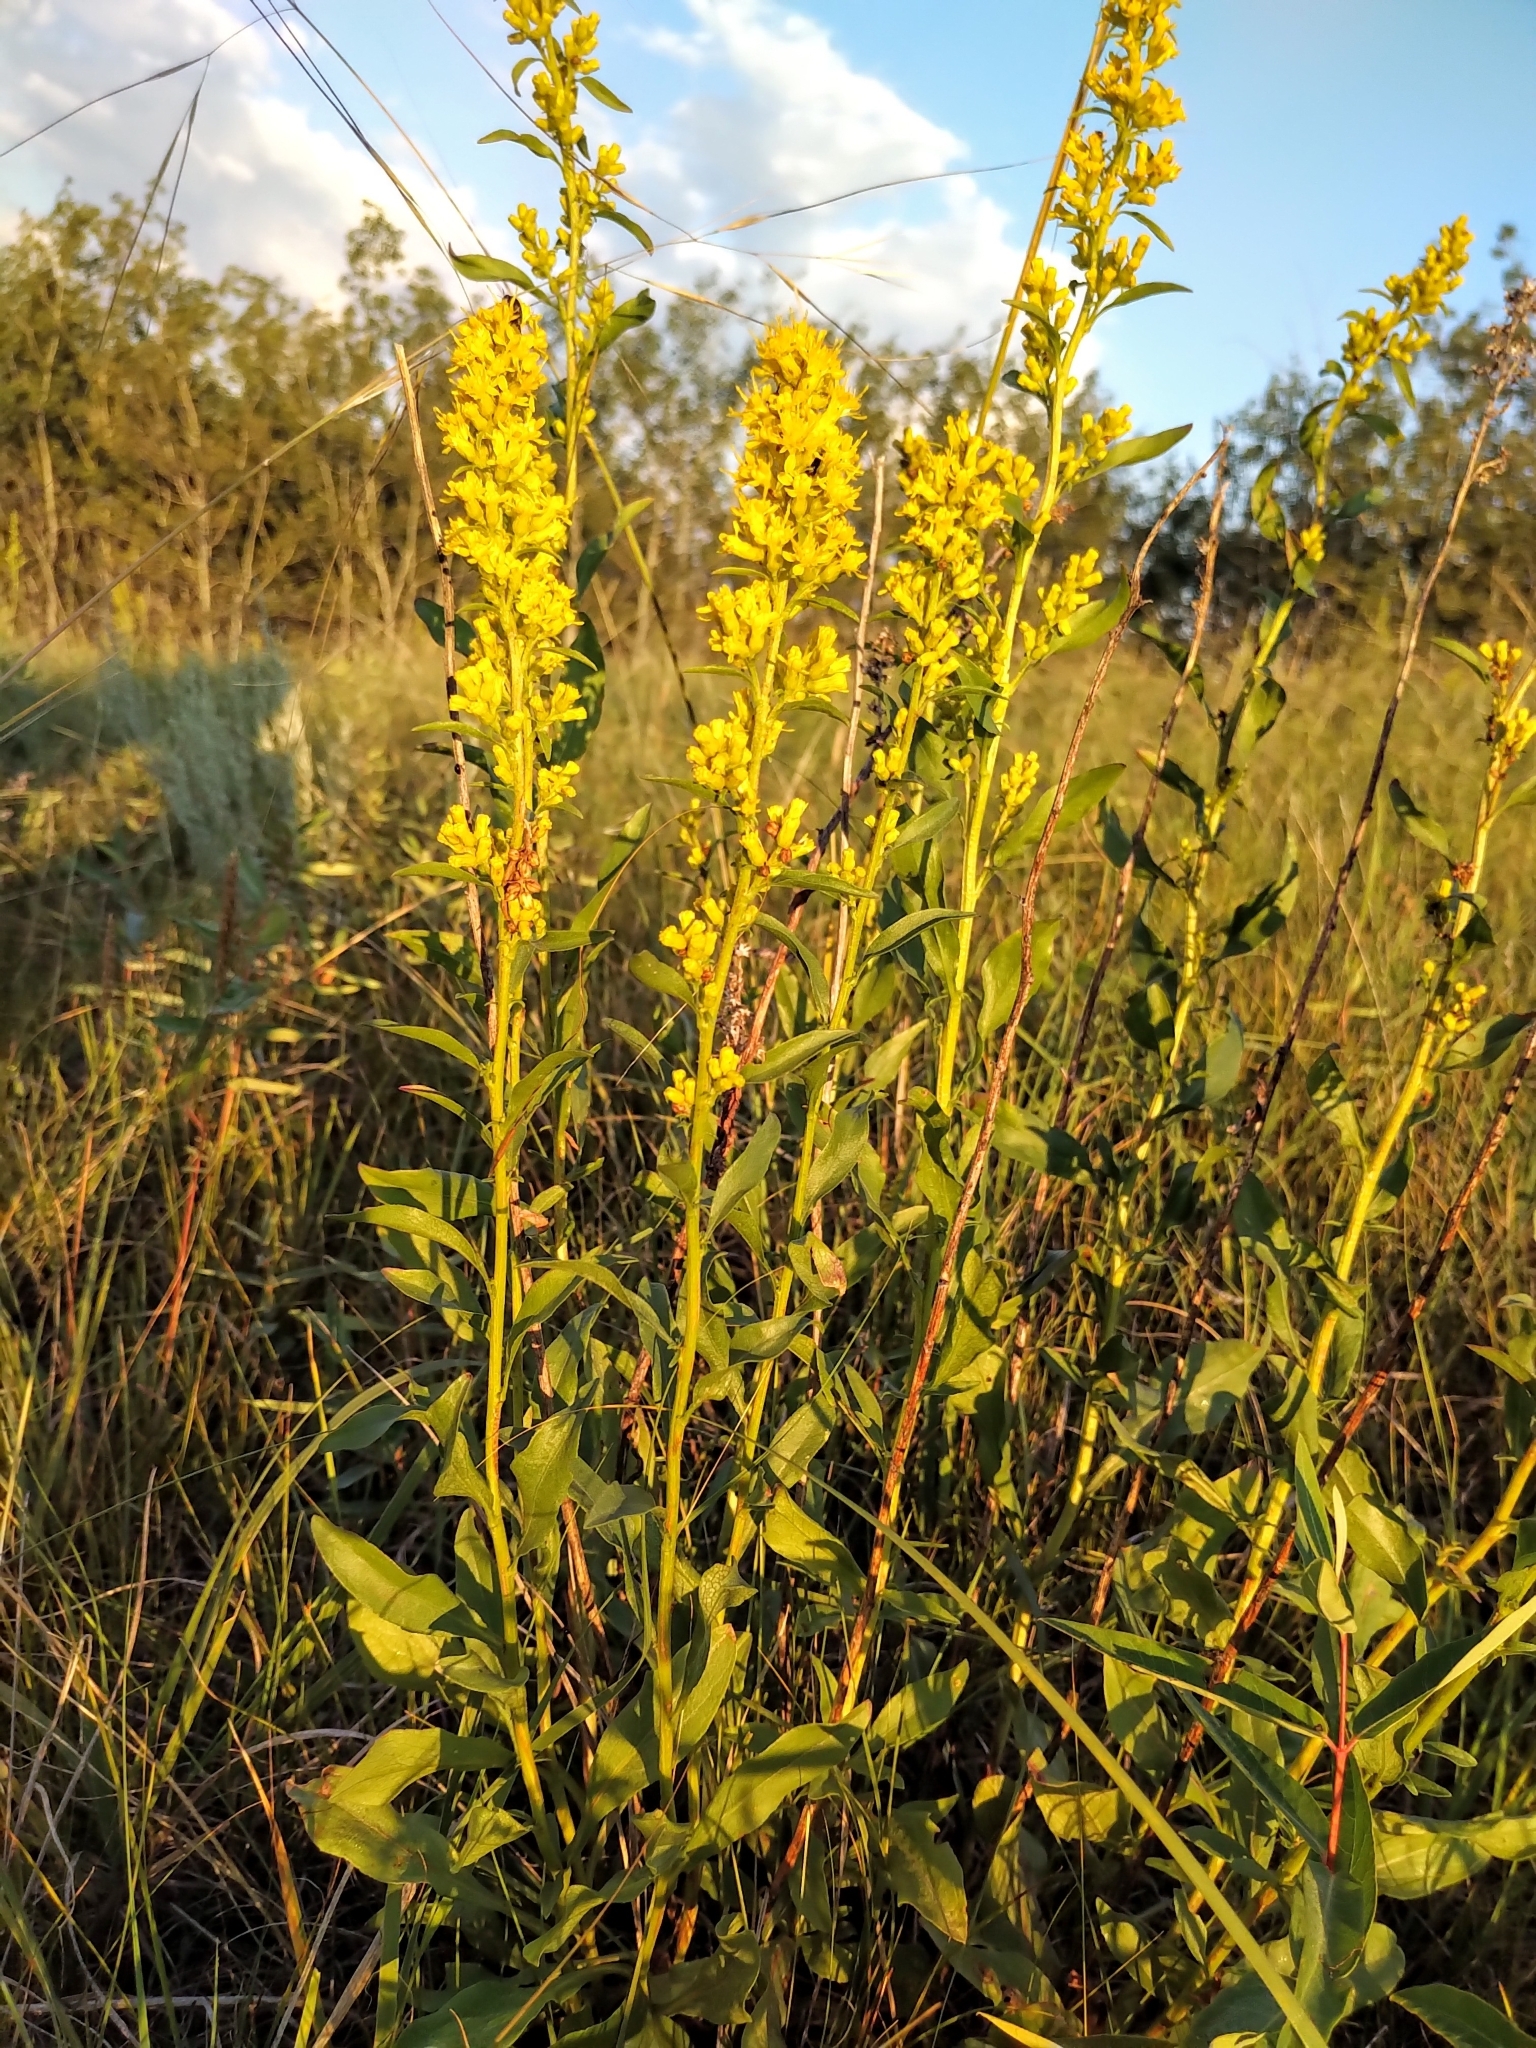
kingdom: Plantae
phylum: Tracheophyta
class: Magnoliopsida
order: Asterales
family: Asteraceae
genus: Solidago
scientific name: Solidago simplex
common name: Sticky goldenrod
